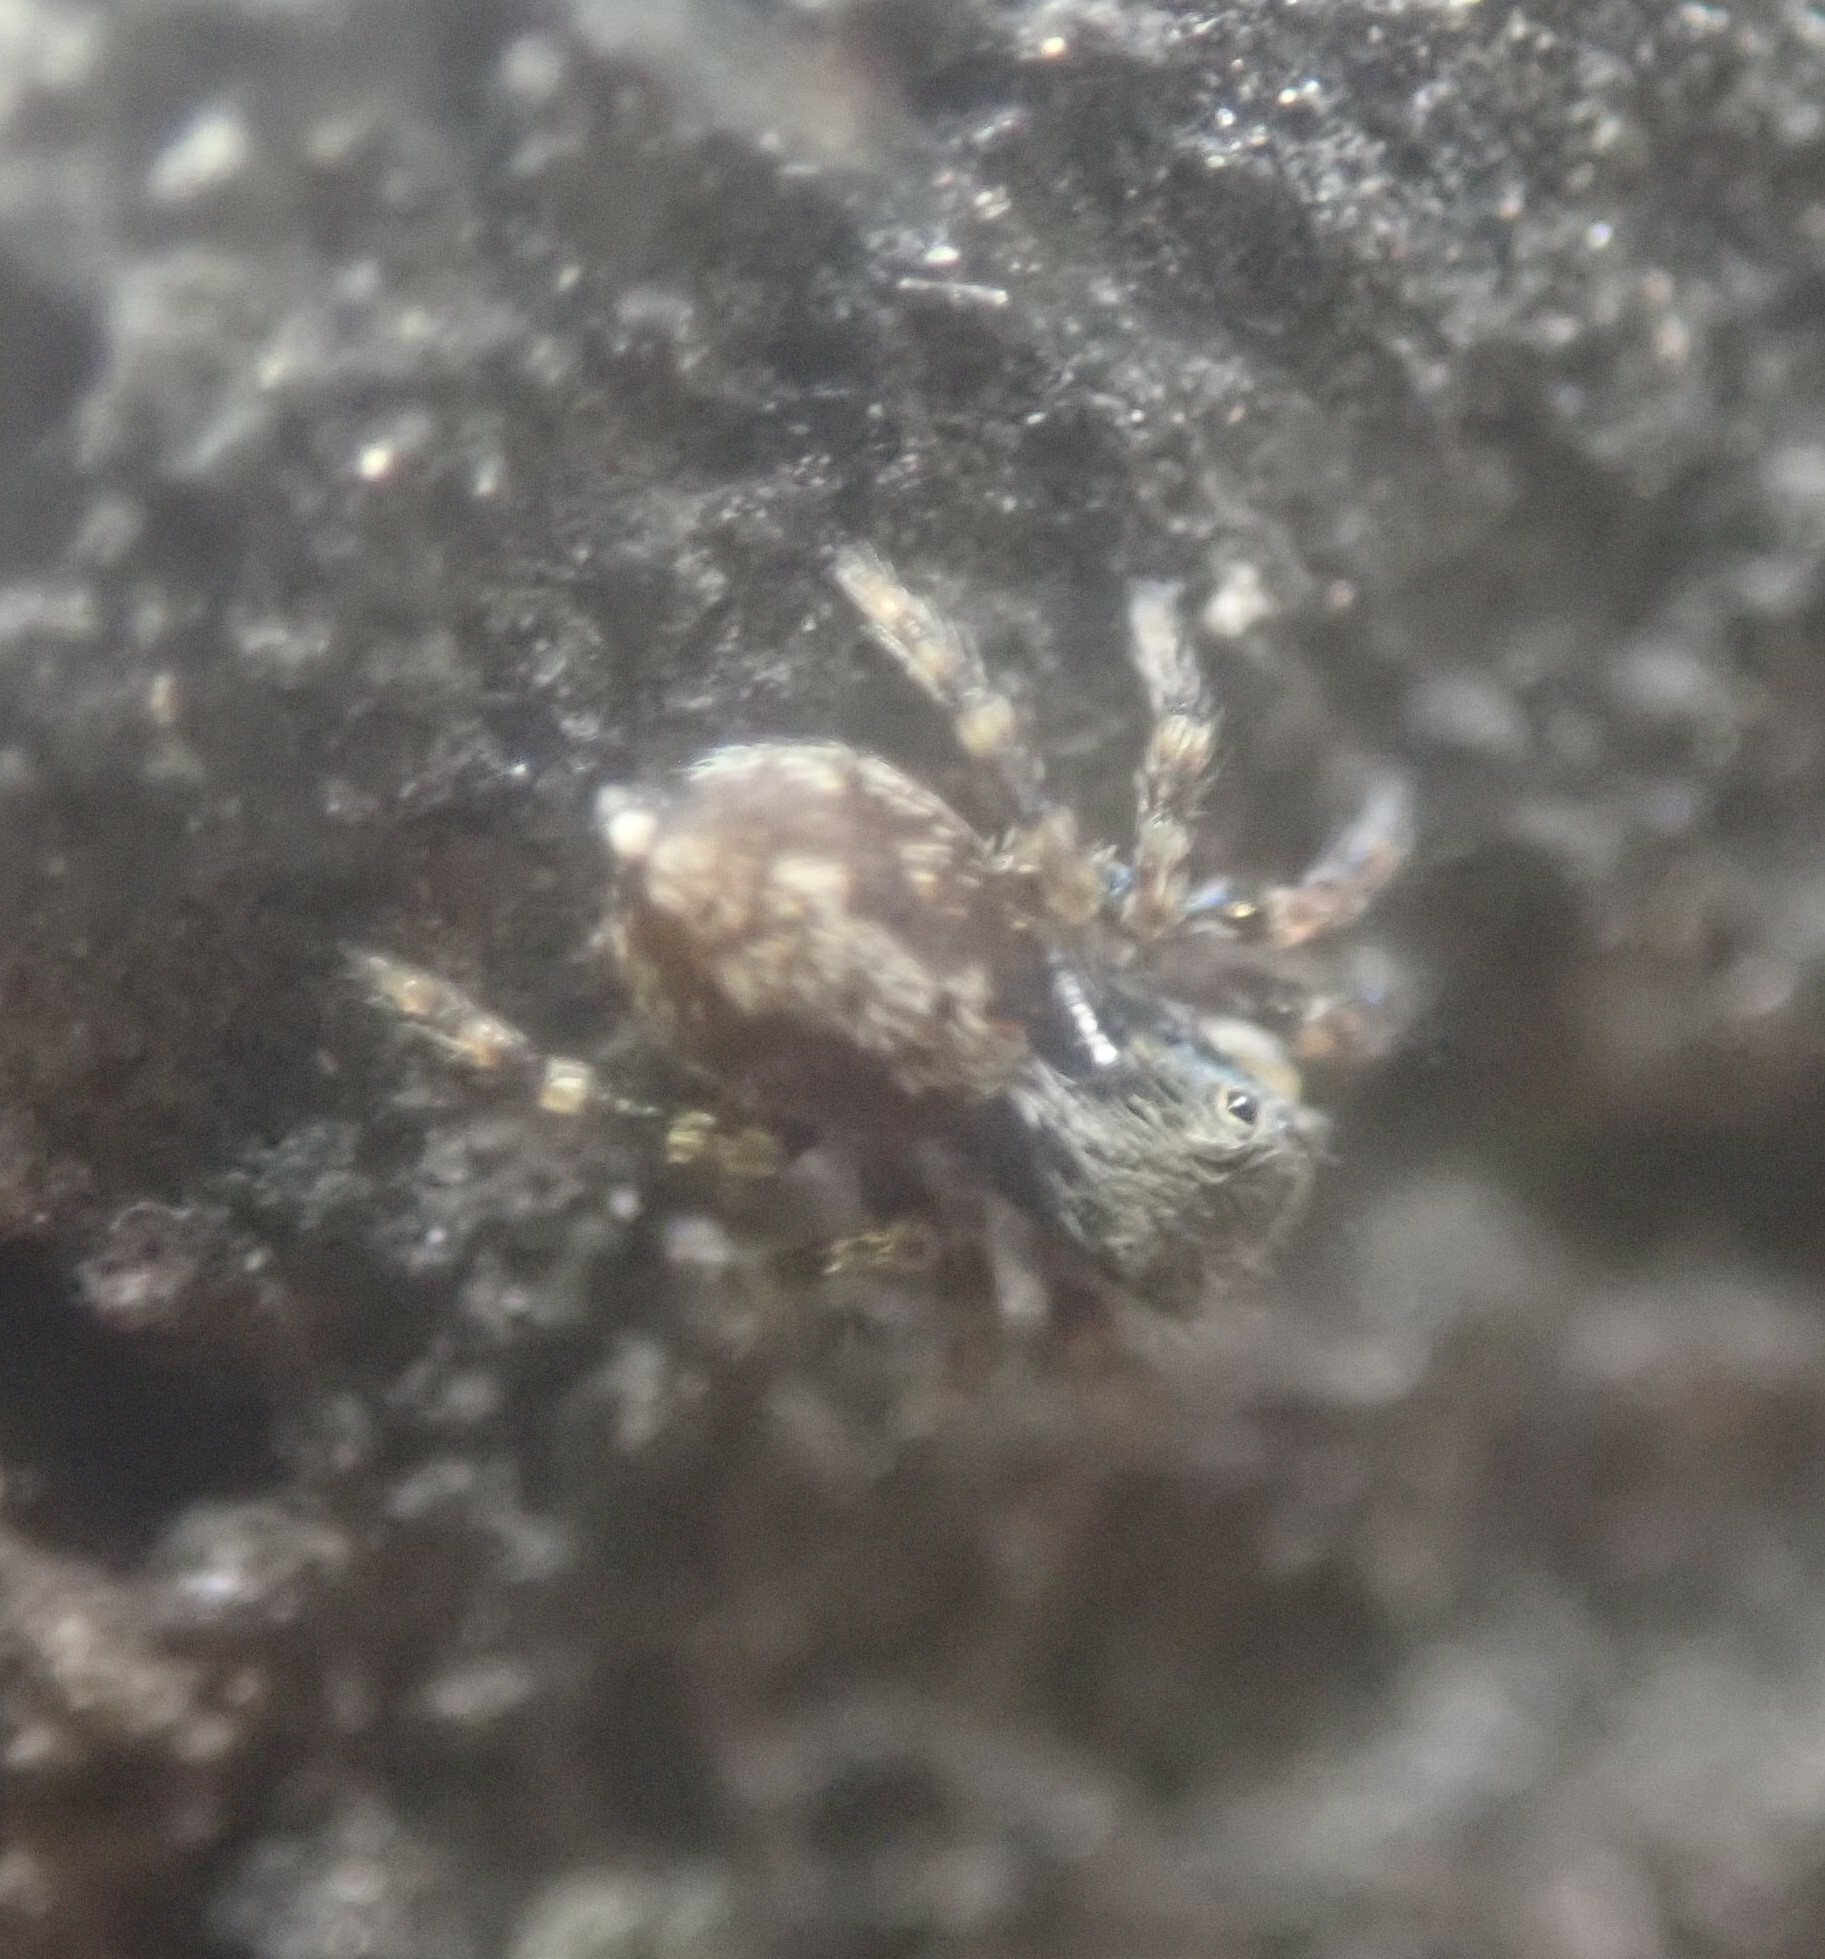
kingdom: Animalia
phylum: Arthropoda
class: Arachnida
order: Araneae
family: Salticidae
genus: Pseudeuophrys
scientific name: Pseudeuophrys lanigera
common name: Jumping spider
